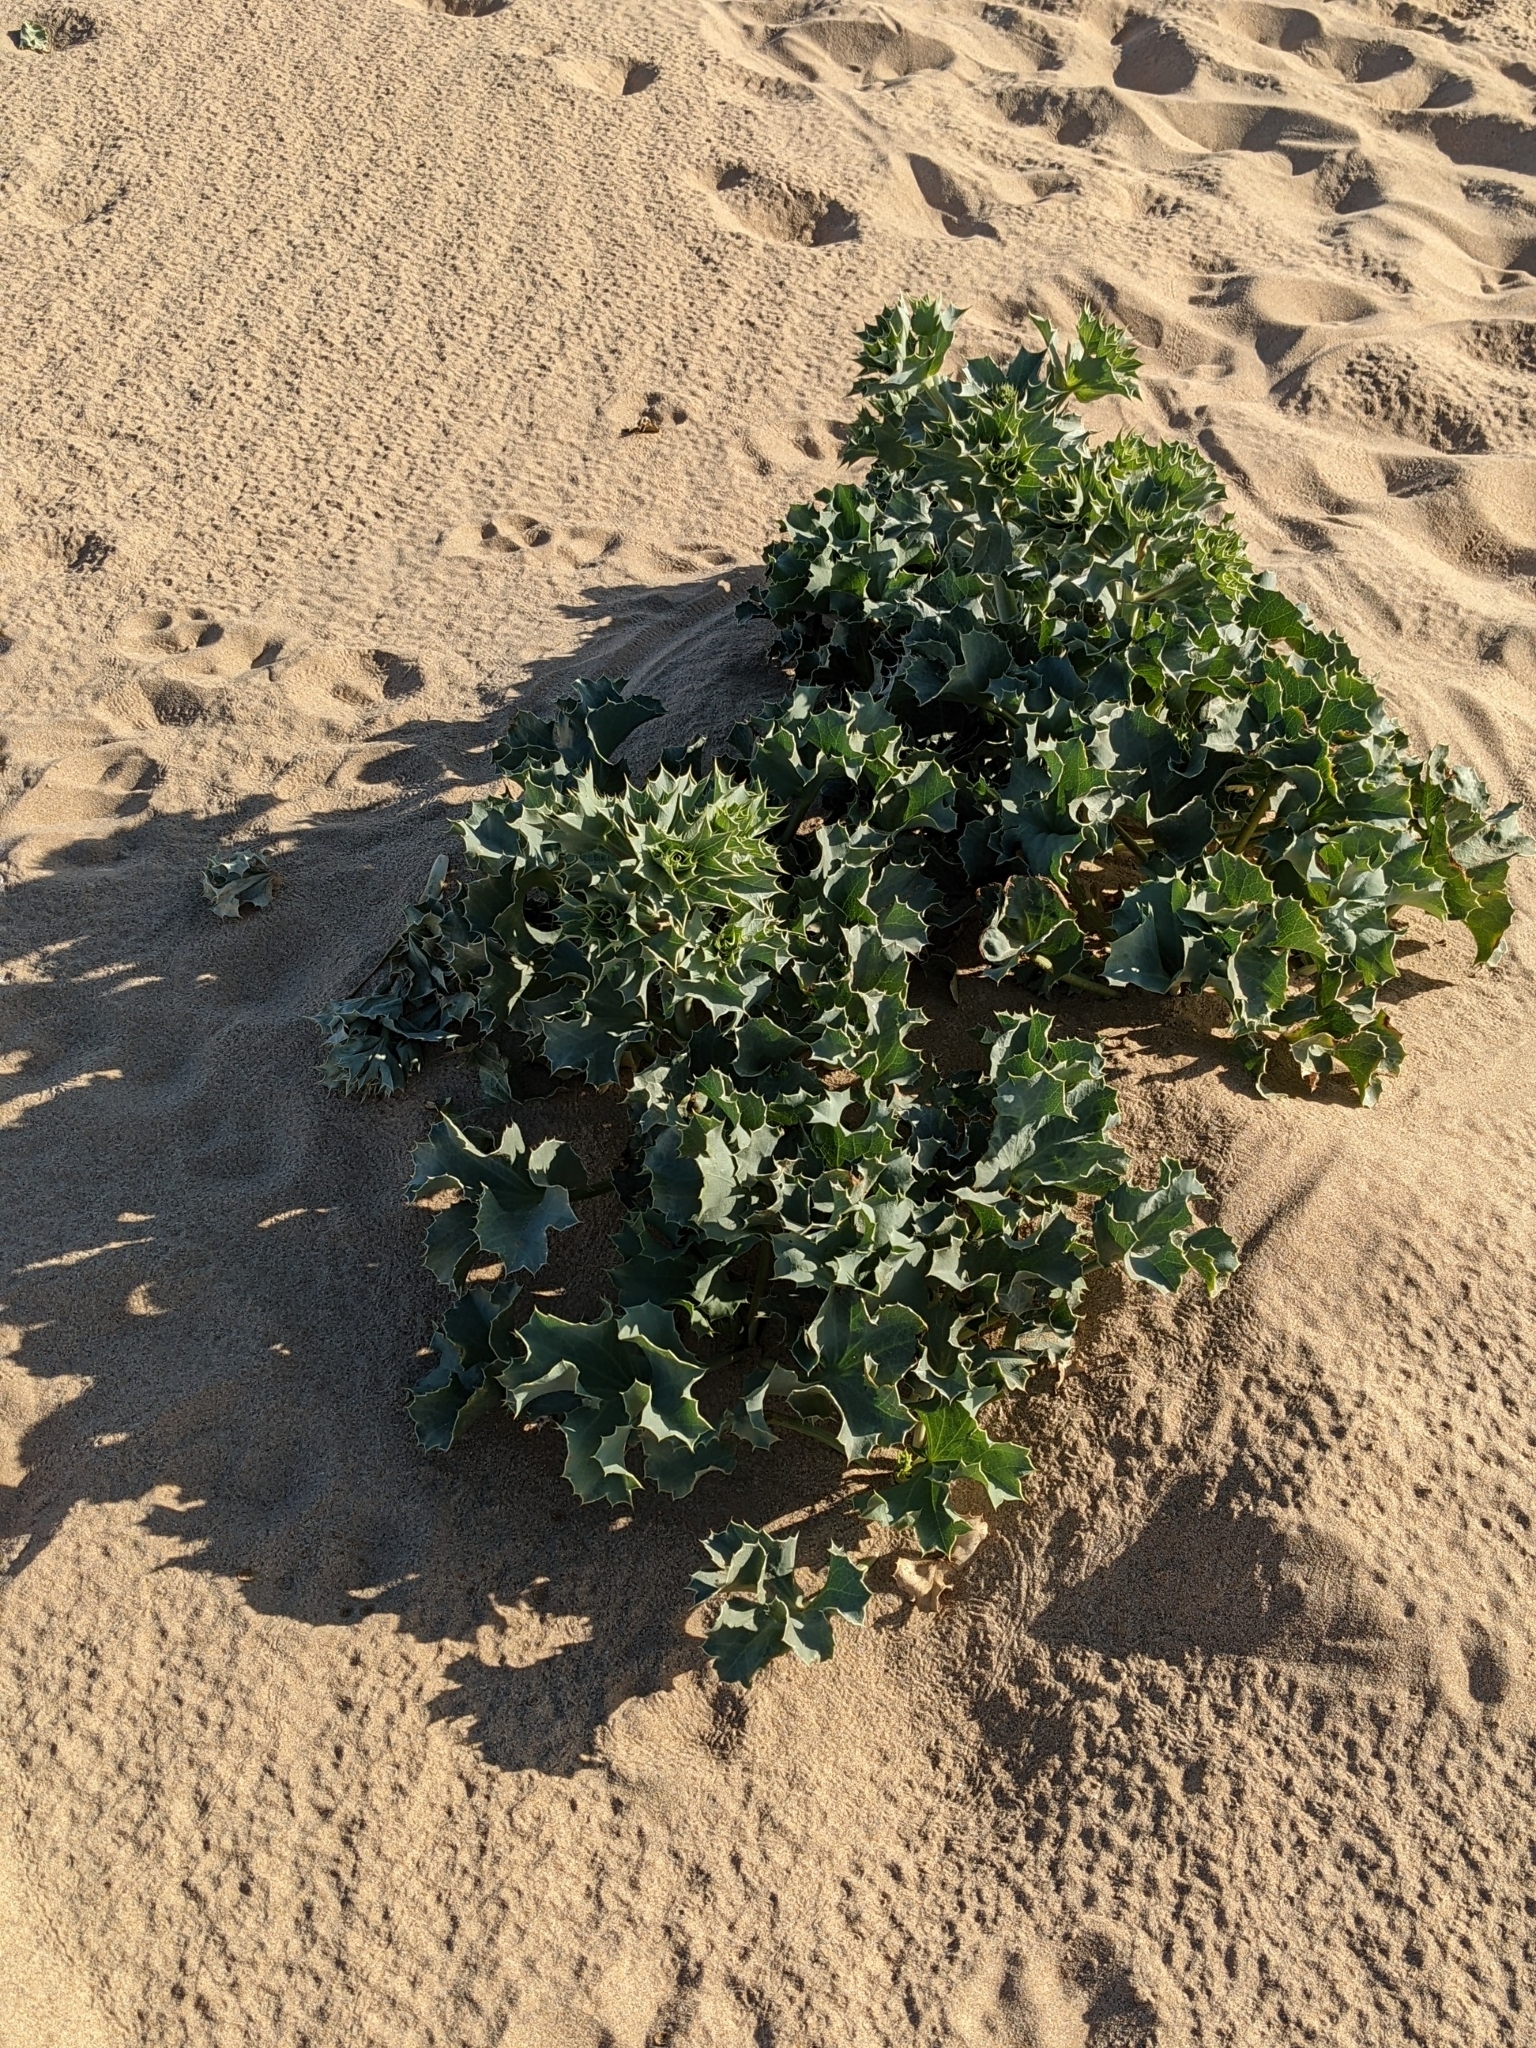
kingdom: Plantae
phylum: Tracheophyta
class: Magnoliopsida
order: Apiales
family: Apiaceae
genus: Eryngium
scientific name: Eryngium maritimum
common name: Sea-holly
